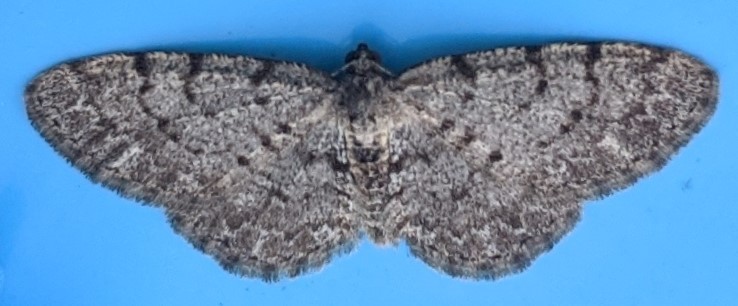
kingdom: Animalia
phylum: Arthropoda
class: Insecta
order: Lepidoptera
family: Geometridae
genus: Aethalura
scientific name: Aethalura intertexta
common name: Four-barred gray
